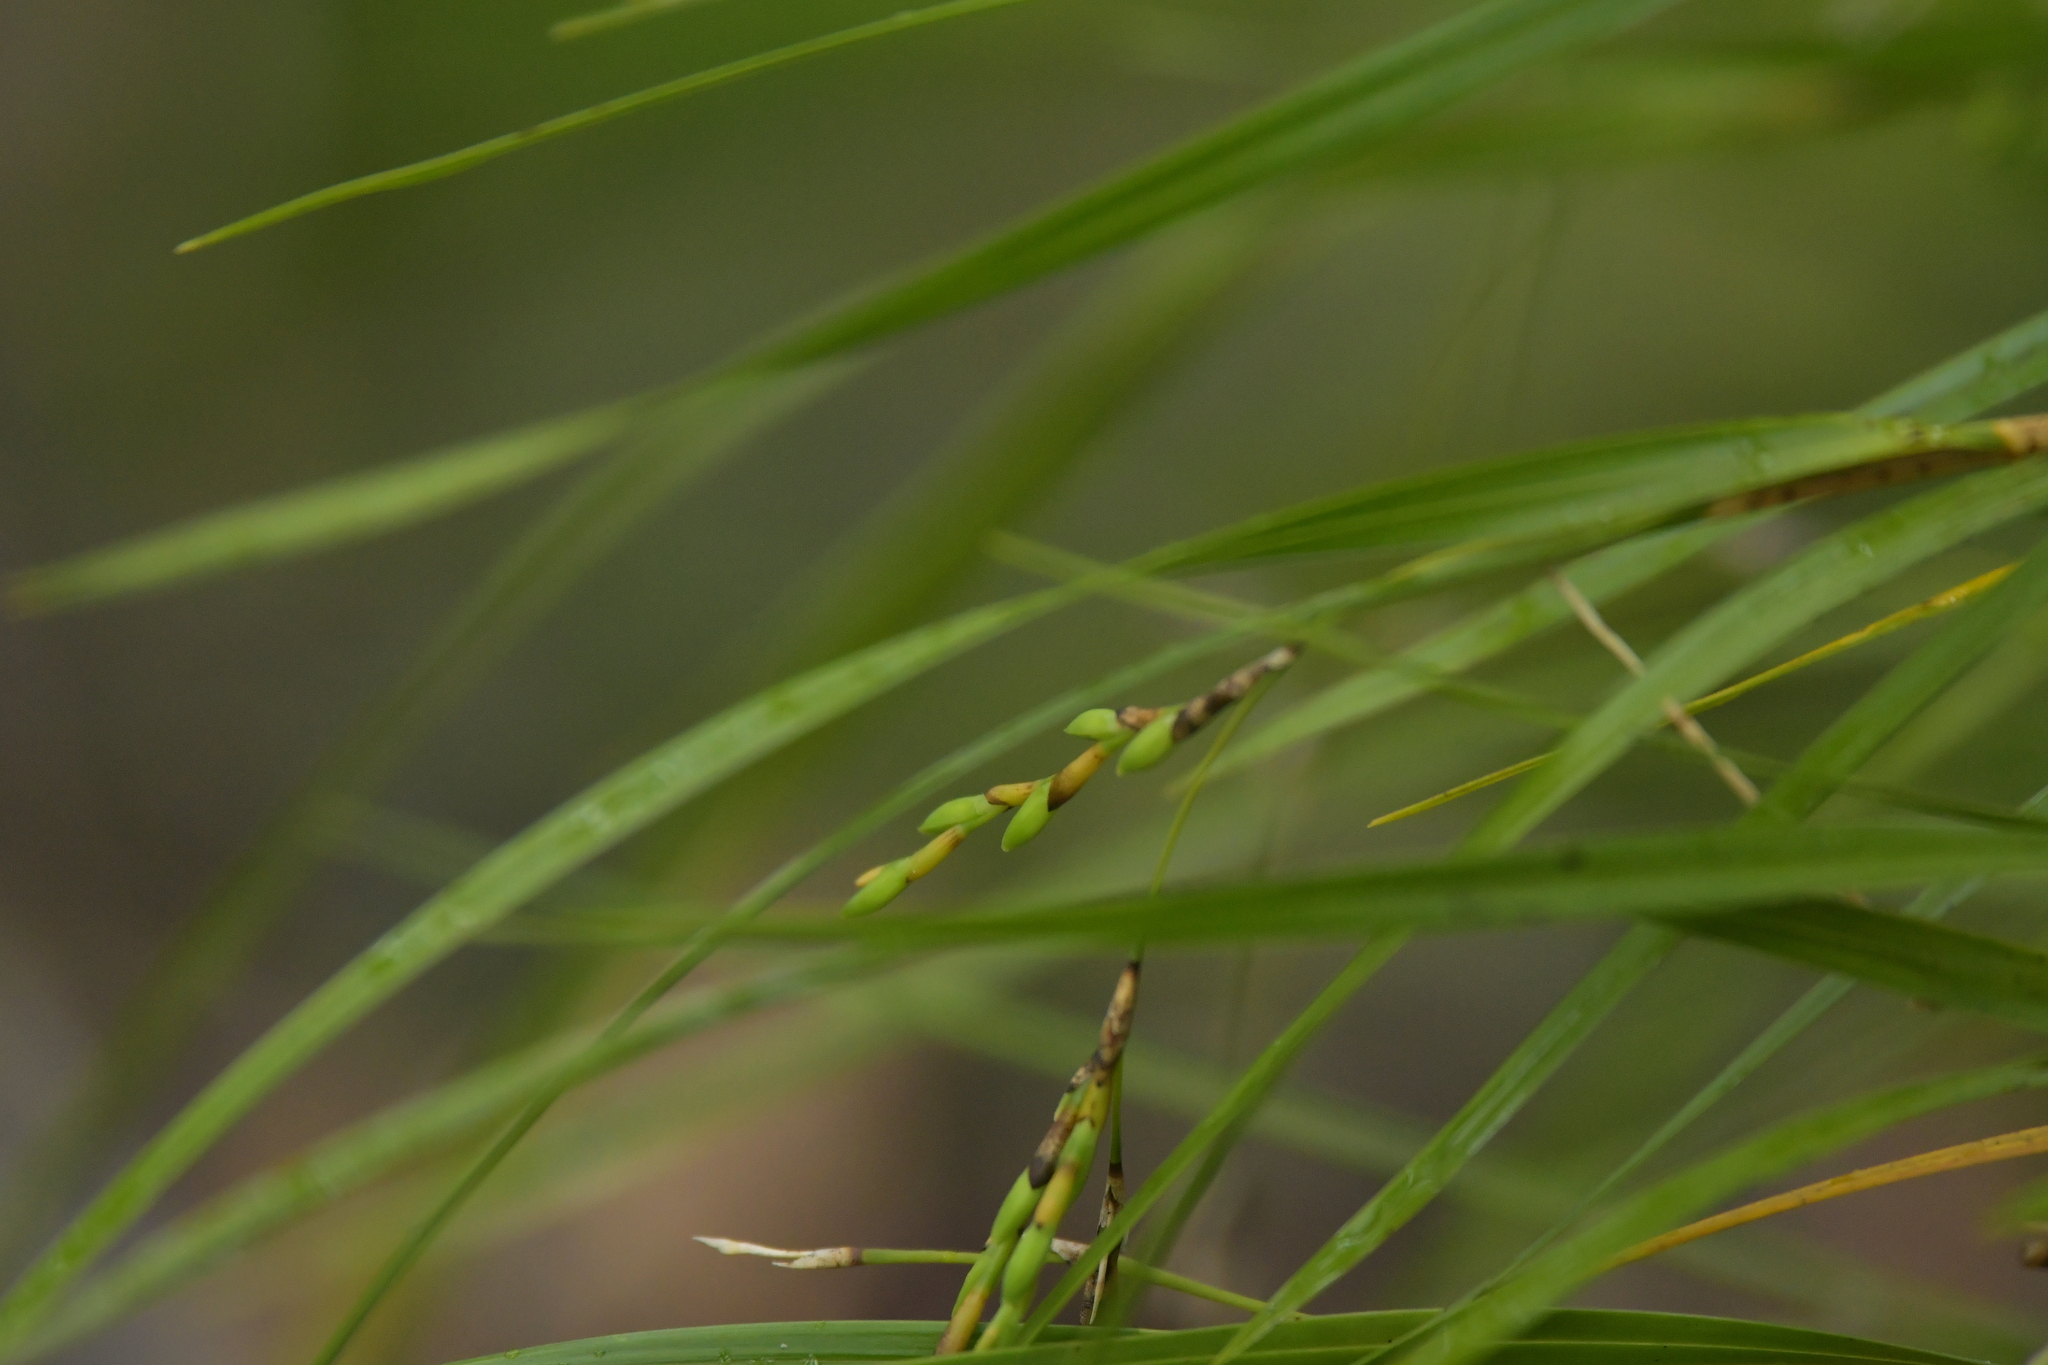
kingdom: Plantae
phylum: Tracheophyta
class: Liliopsida
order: Asparagales
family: Orchidaceae
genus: Earina
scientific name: Earina mucronata
